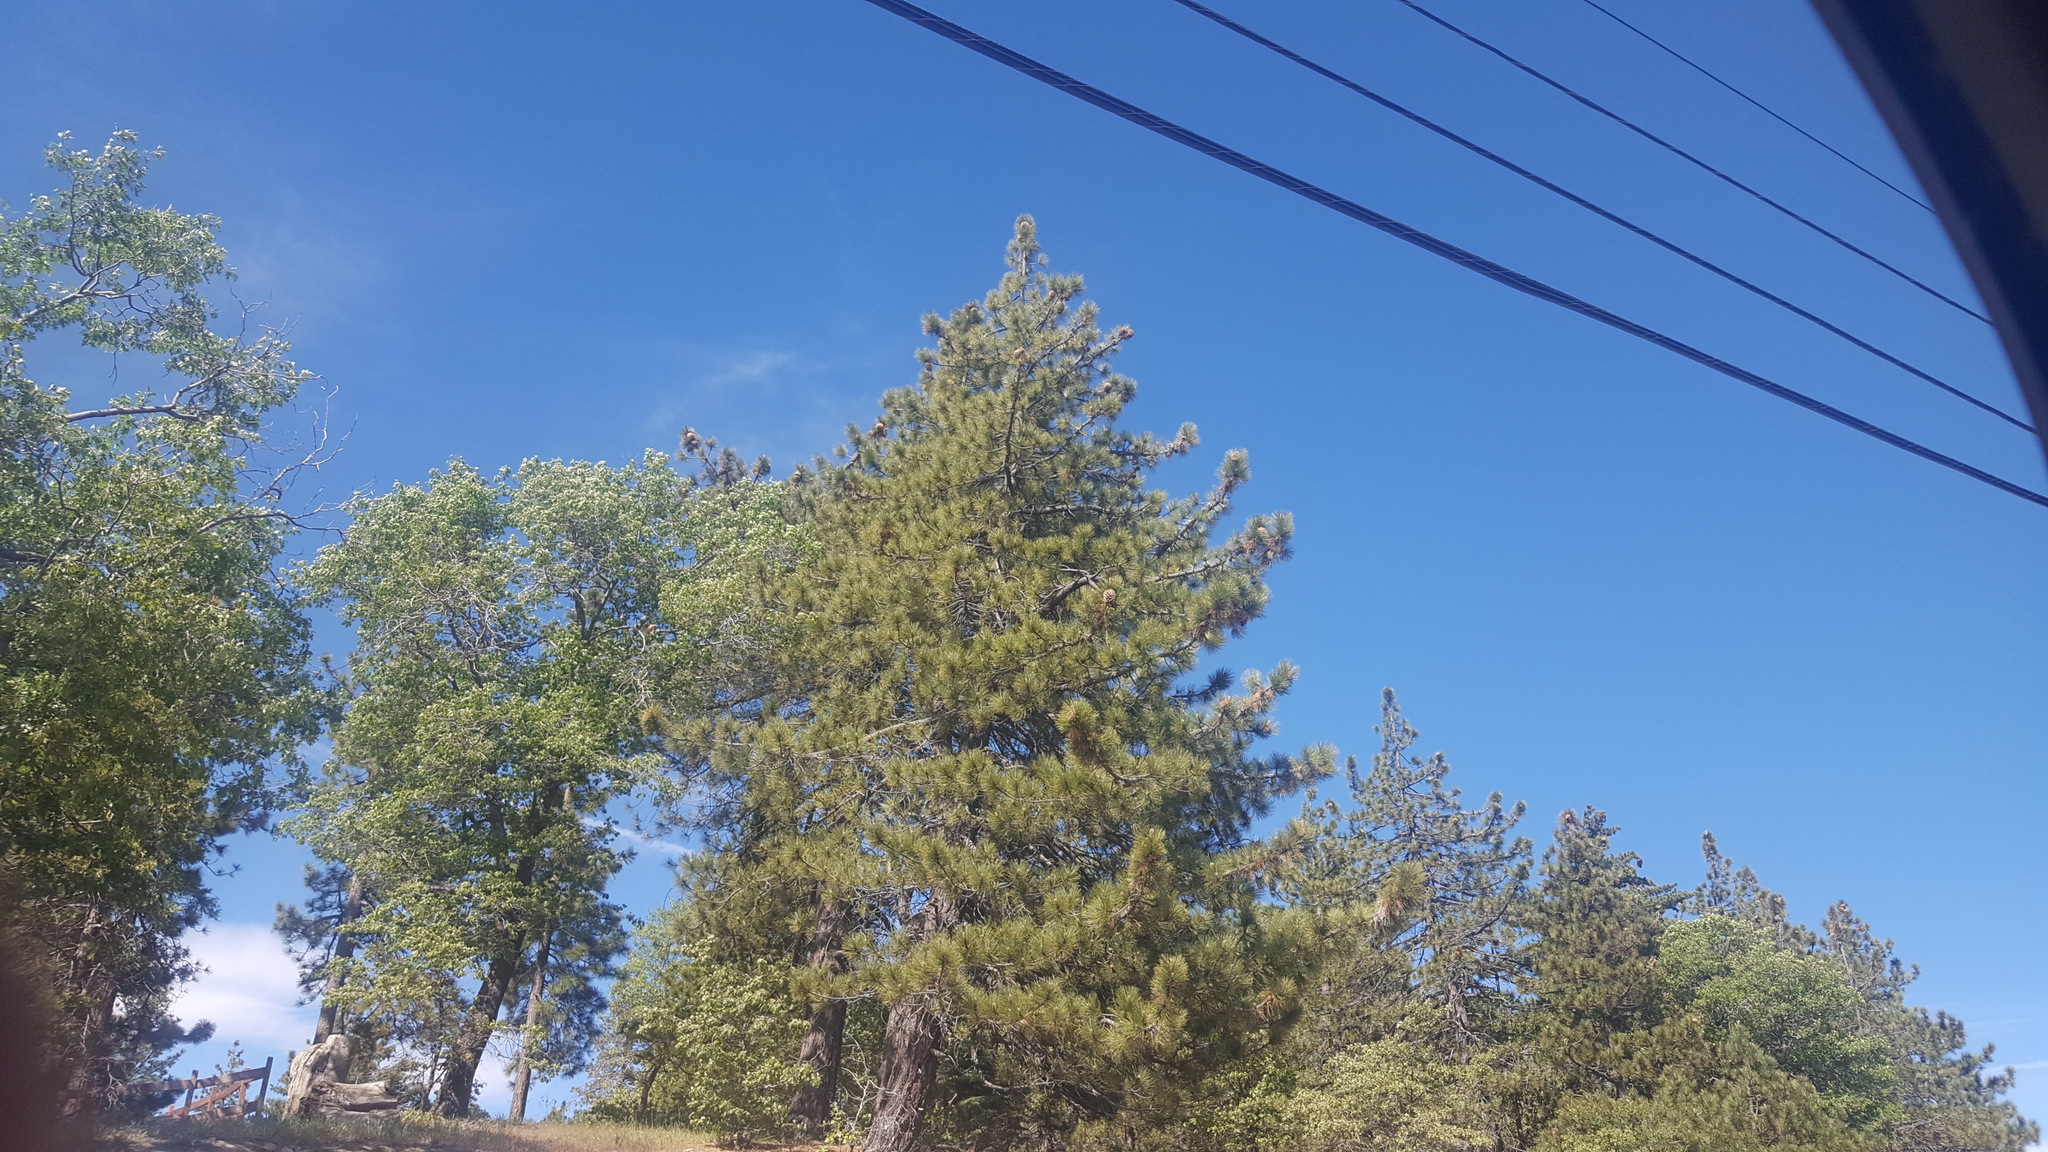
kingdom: Plantae
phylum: Tracheophyta
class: Pinopsida
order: Pinales
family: Pinaceae
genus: Pinus
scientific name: Pinus coulteri
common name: Coulter pine
